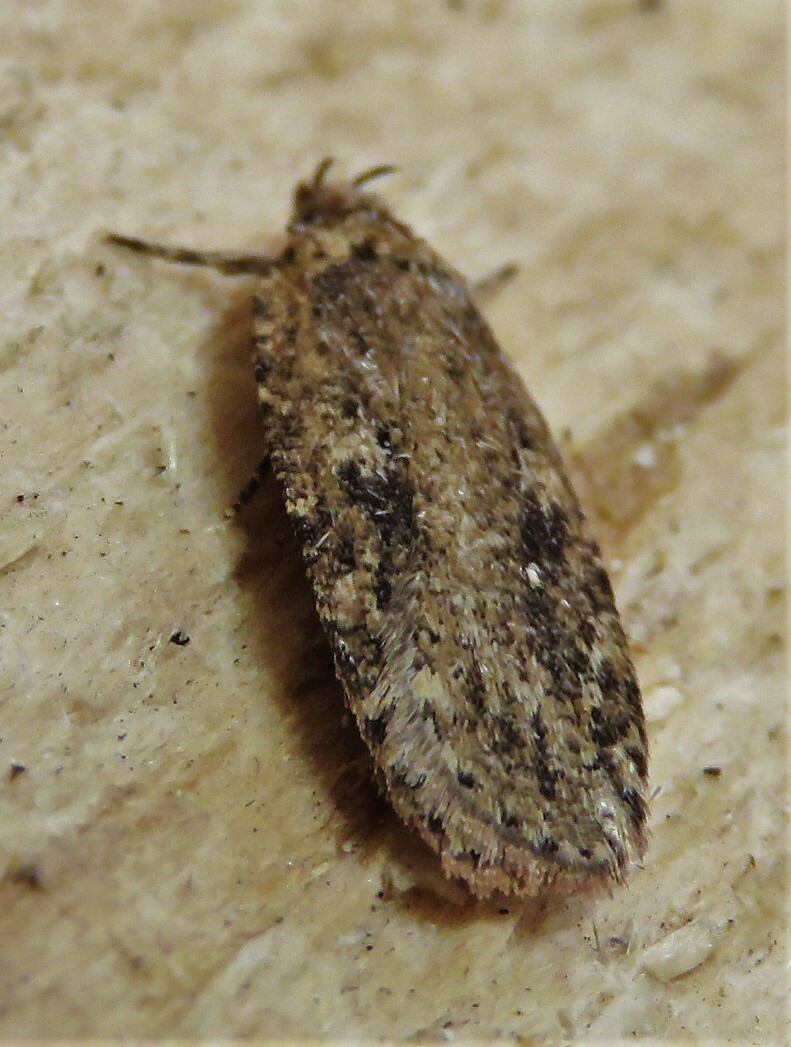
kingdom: Animalia
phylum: Arthropoda
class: Insecta
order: Lepidoptera
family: Depressariidae
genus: Agonopterix
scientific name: Agonopterix pulvipennella
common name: Goldenrod leafffolder
